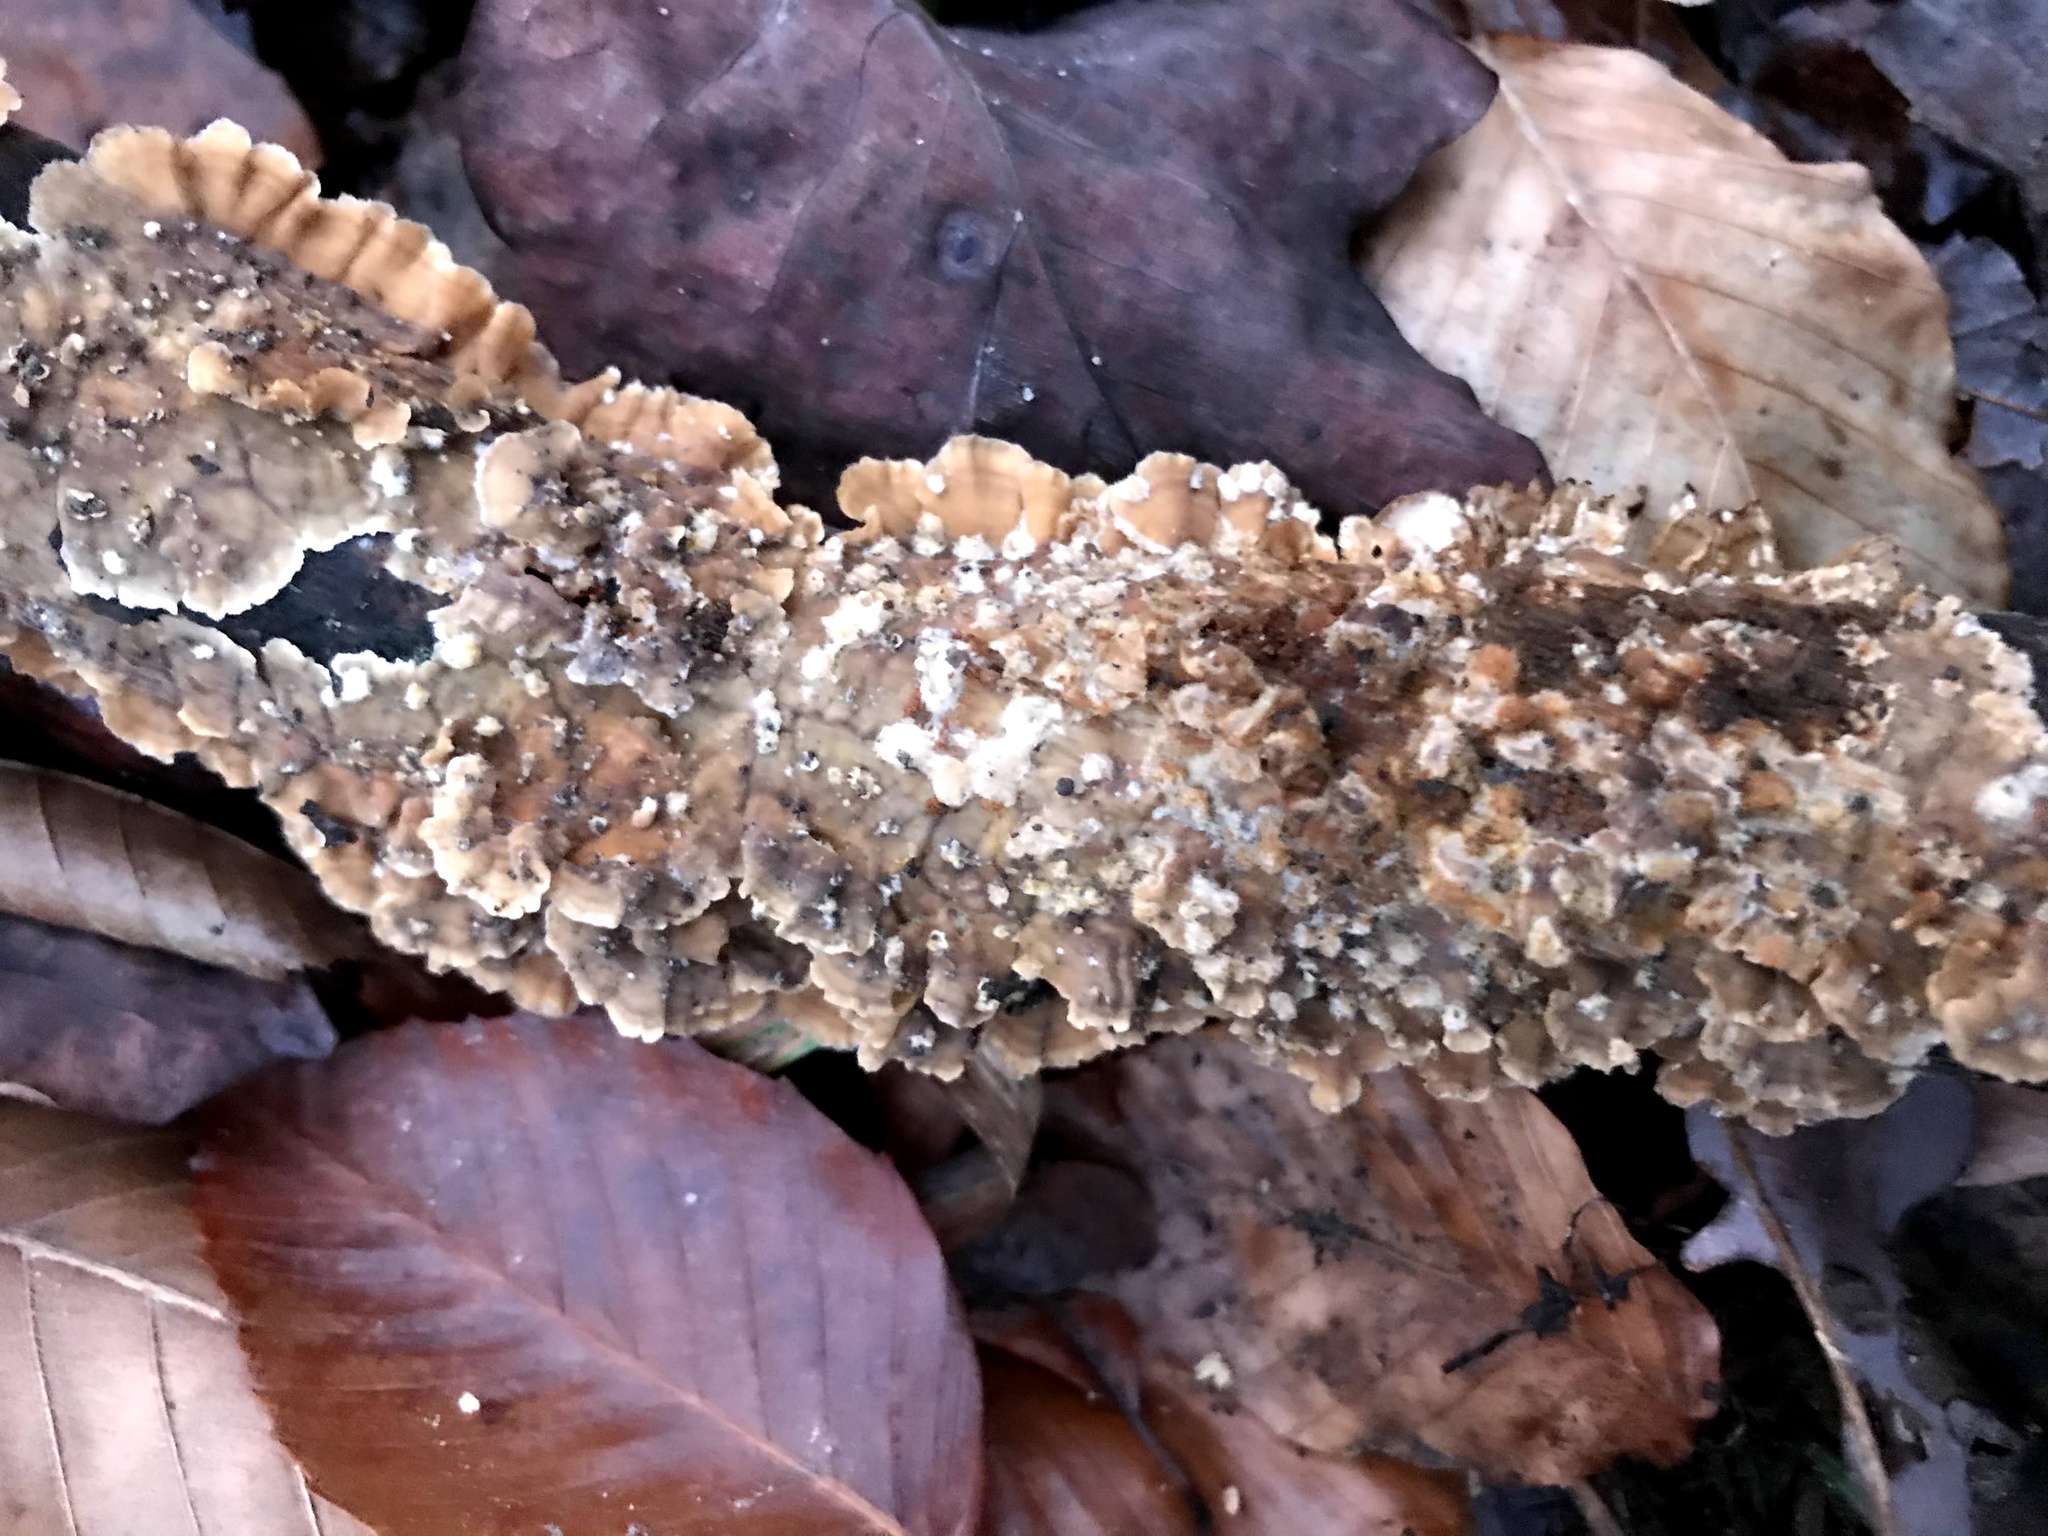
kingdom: Fungi
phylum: Basidiomycota
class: Agaricomycetes
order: Russulales
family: Stereaceae
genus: Stereum
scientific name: Stereum complicatum
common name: Crowded parchment
